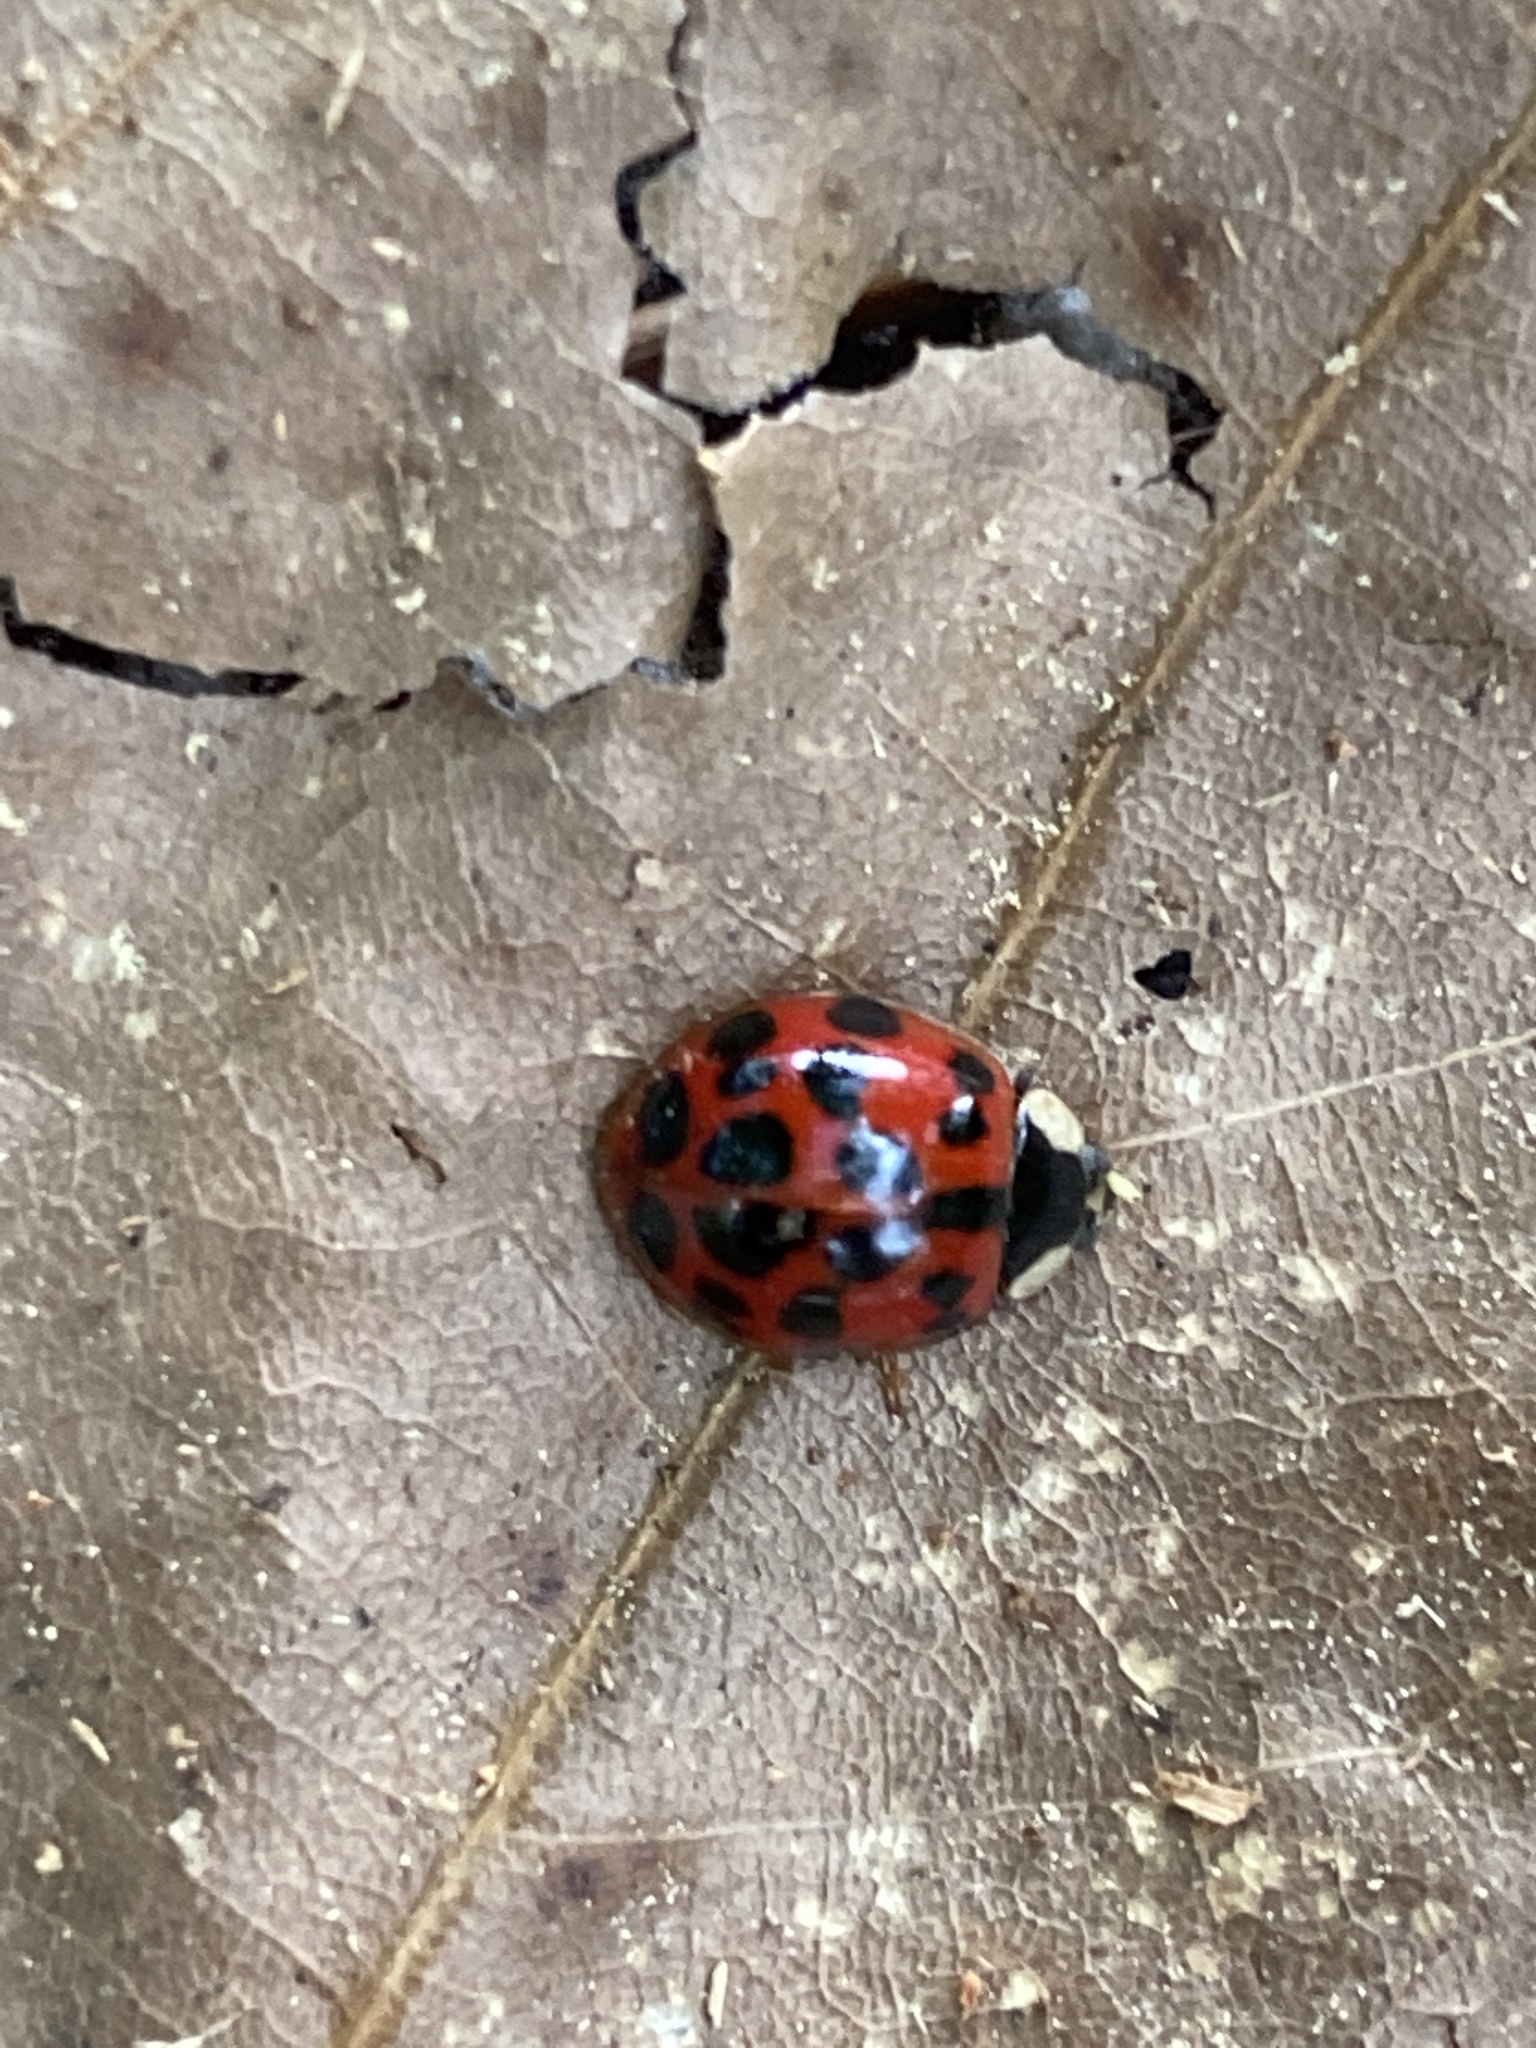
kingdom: Animalia
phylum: Arthropoda
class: Insecta
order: Coleoptera
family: Coccinellidae
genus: Harmonia
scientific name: Harmonia axyridis
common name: Harlequin ladybird
